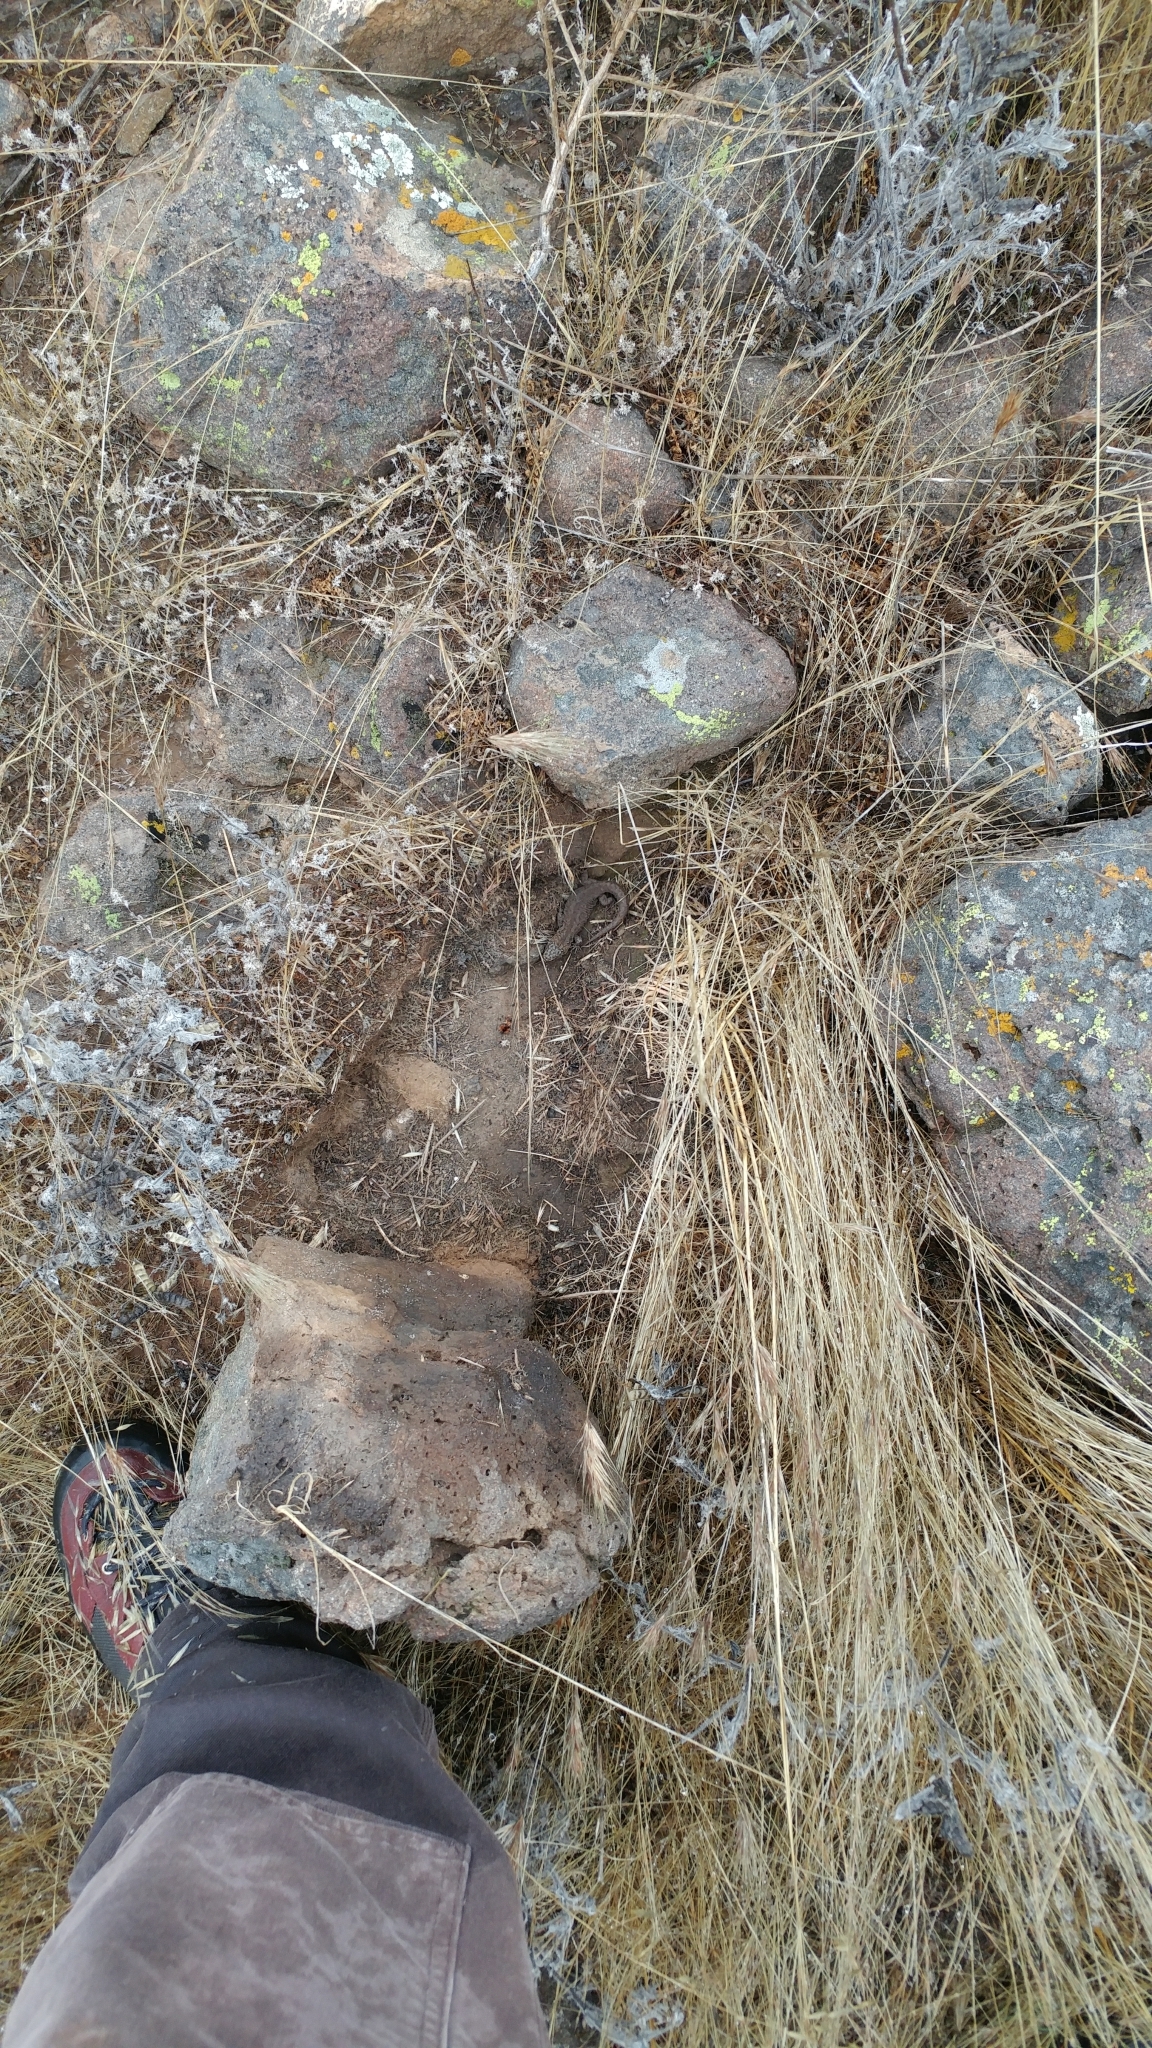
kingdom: Animalia
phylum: Chordata
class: Squamata
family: Xantusiidae
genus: Xantusia
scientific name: Xantusia riversiana
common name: Island night lizard
